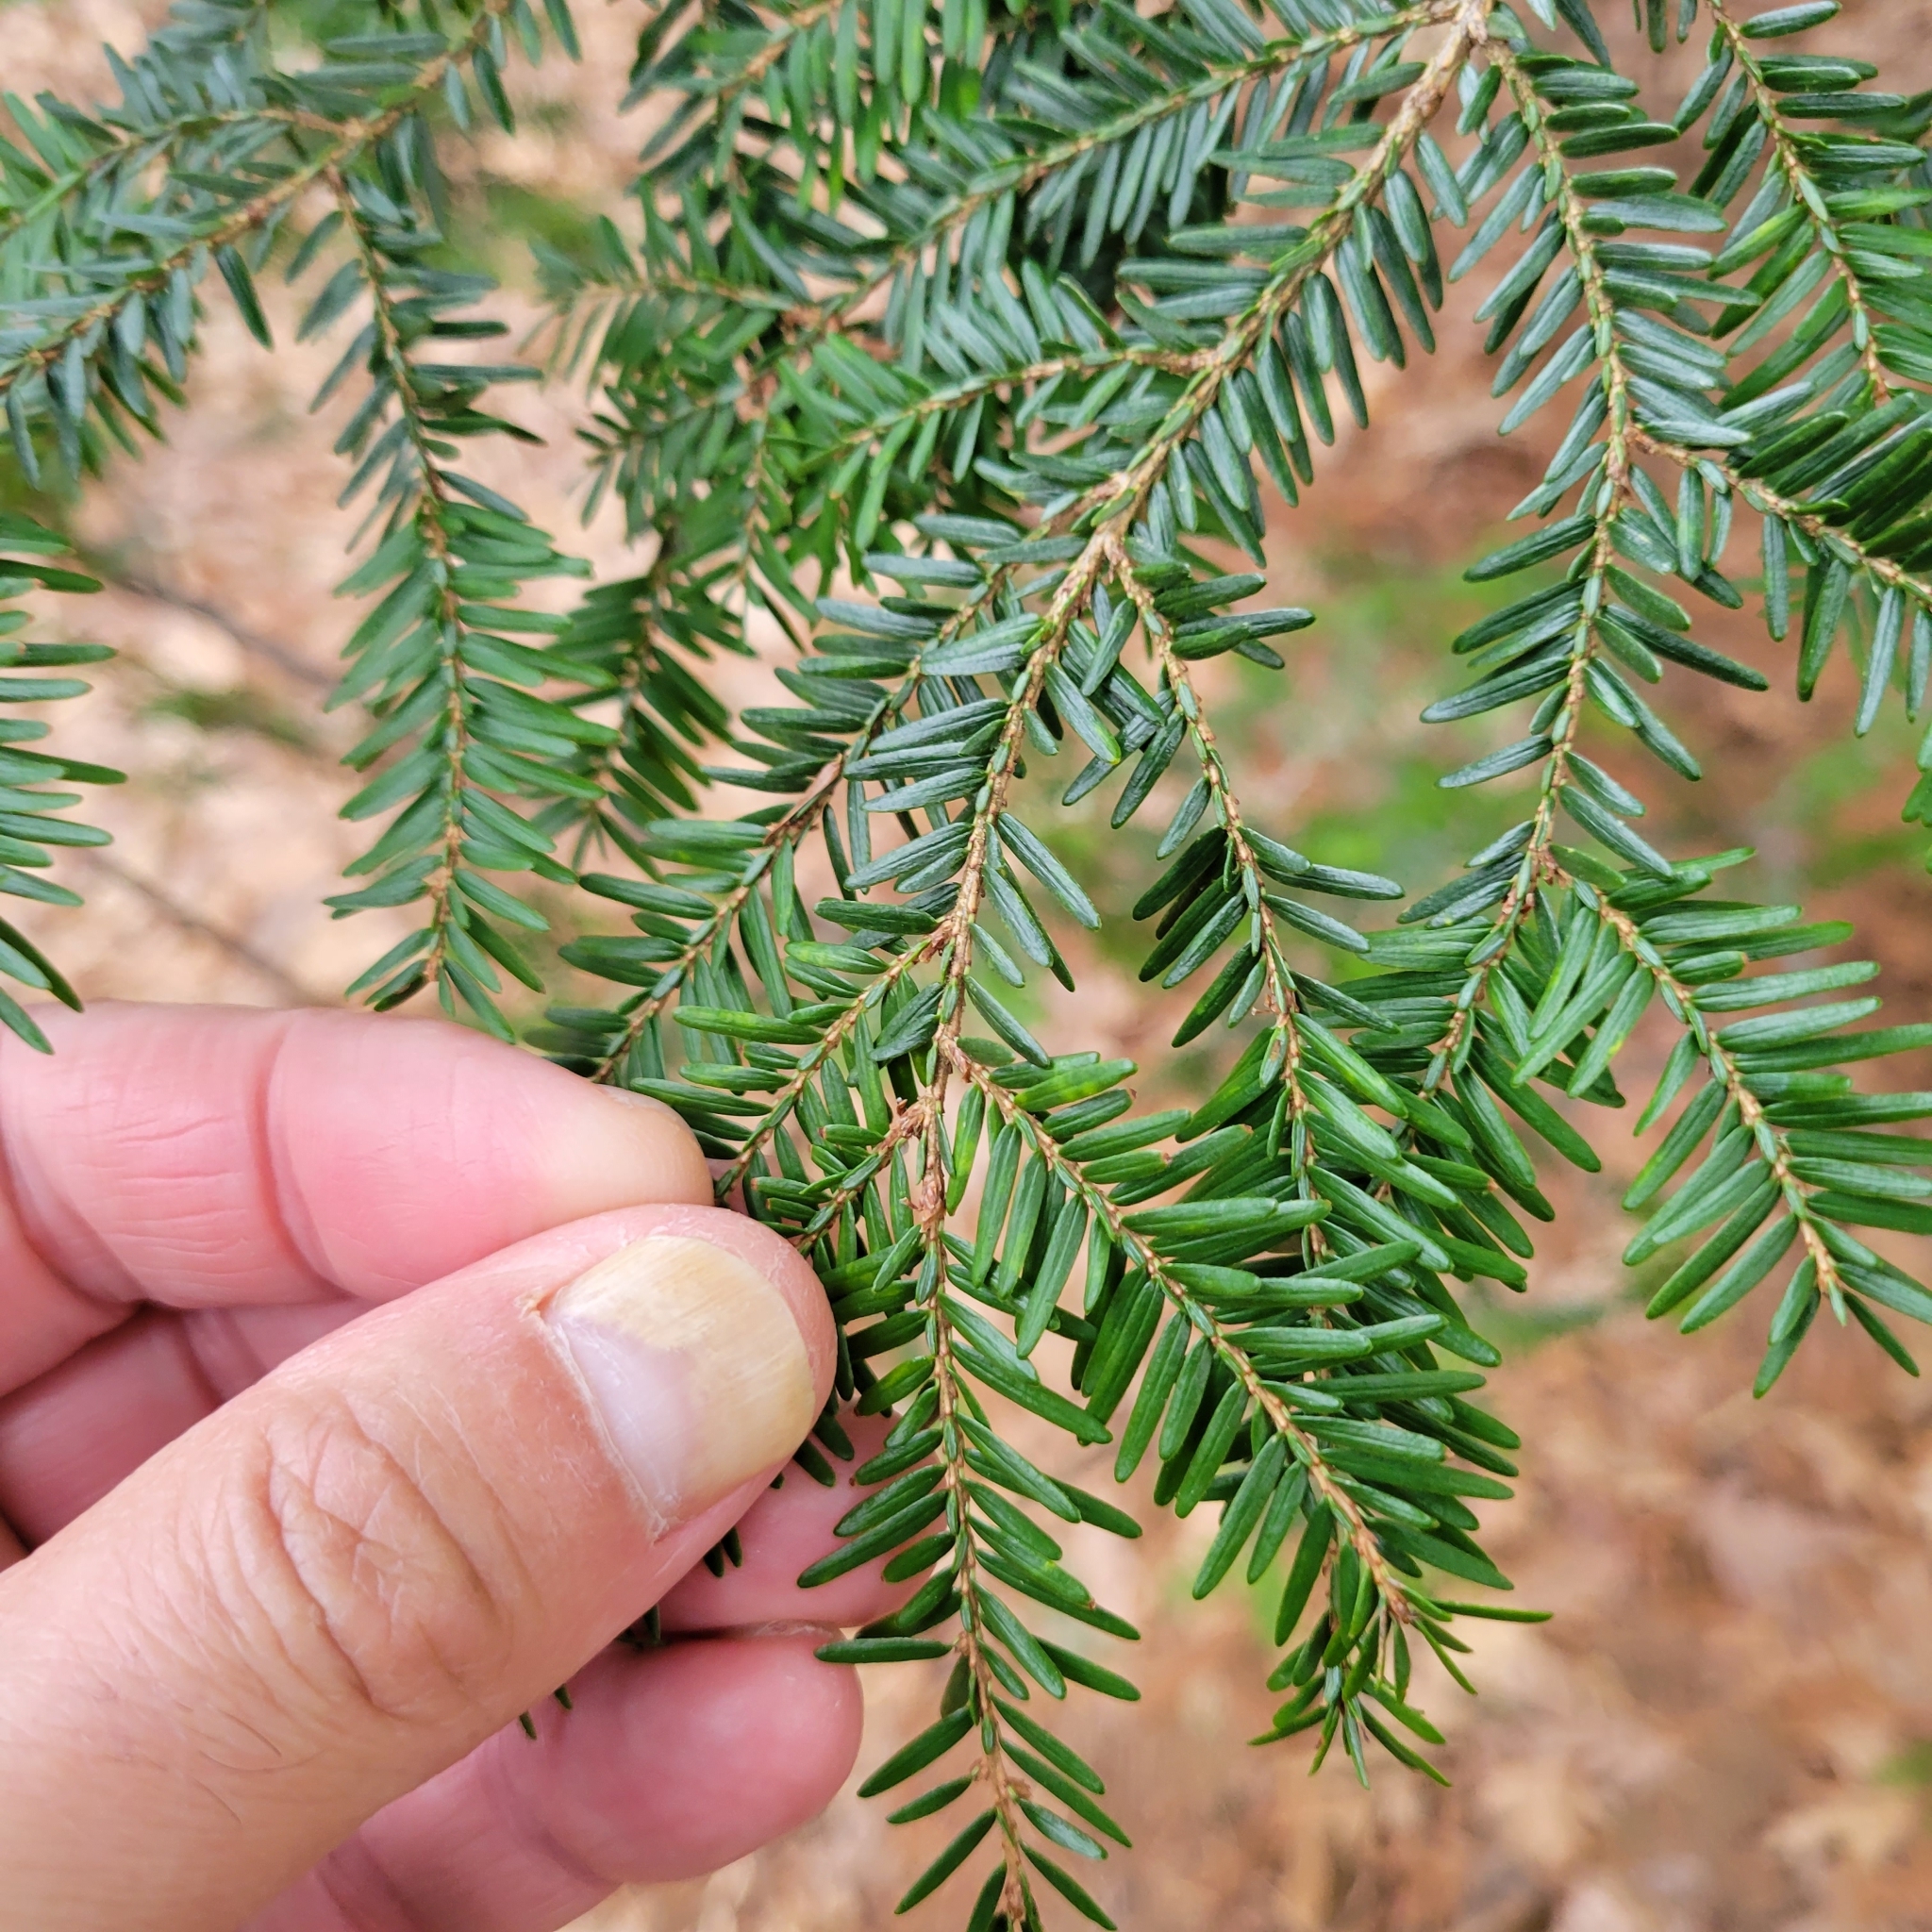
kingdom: Plantae
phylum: Tracheophyta
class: Pinopsida
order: Pinales
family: Pinaceae
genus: Tsuga
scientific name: Tsuga canadensis
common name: Eastern hemlock
